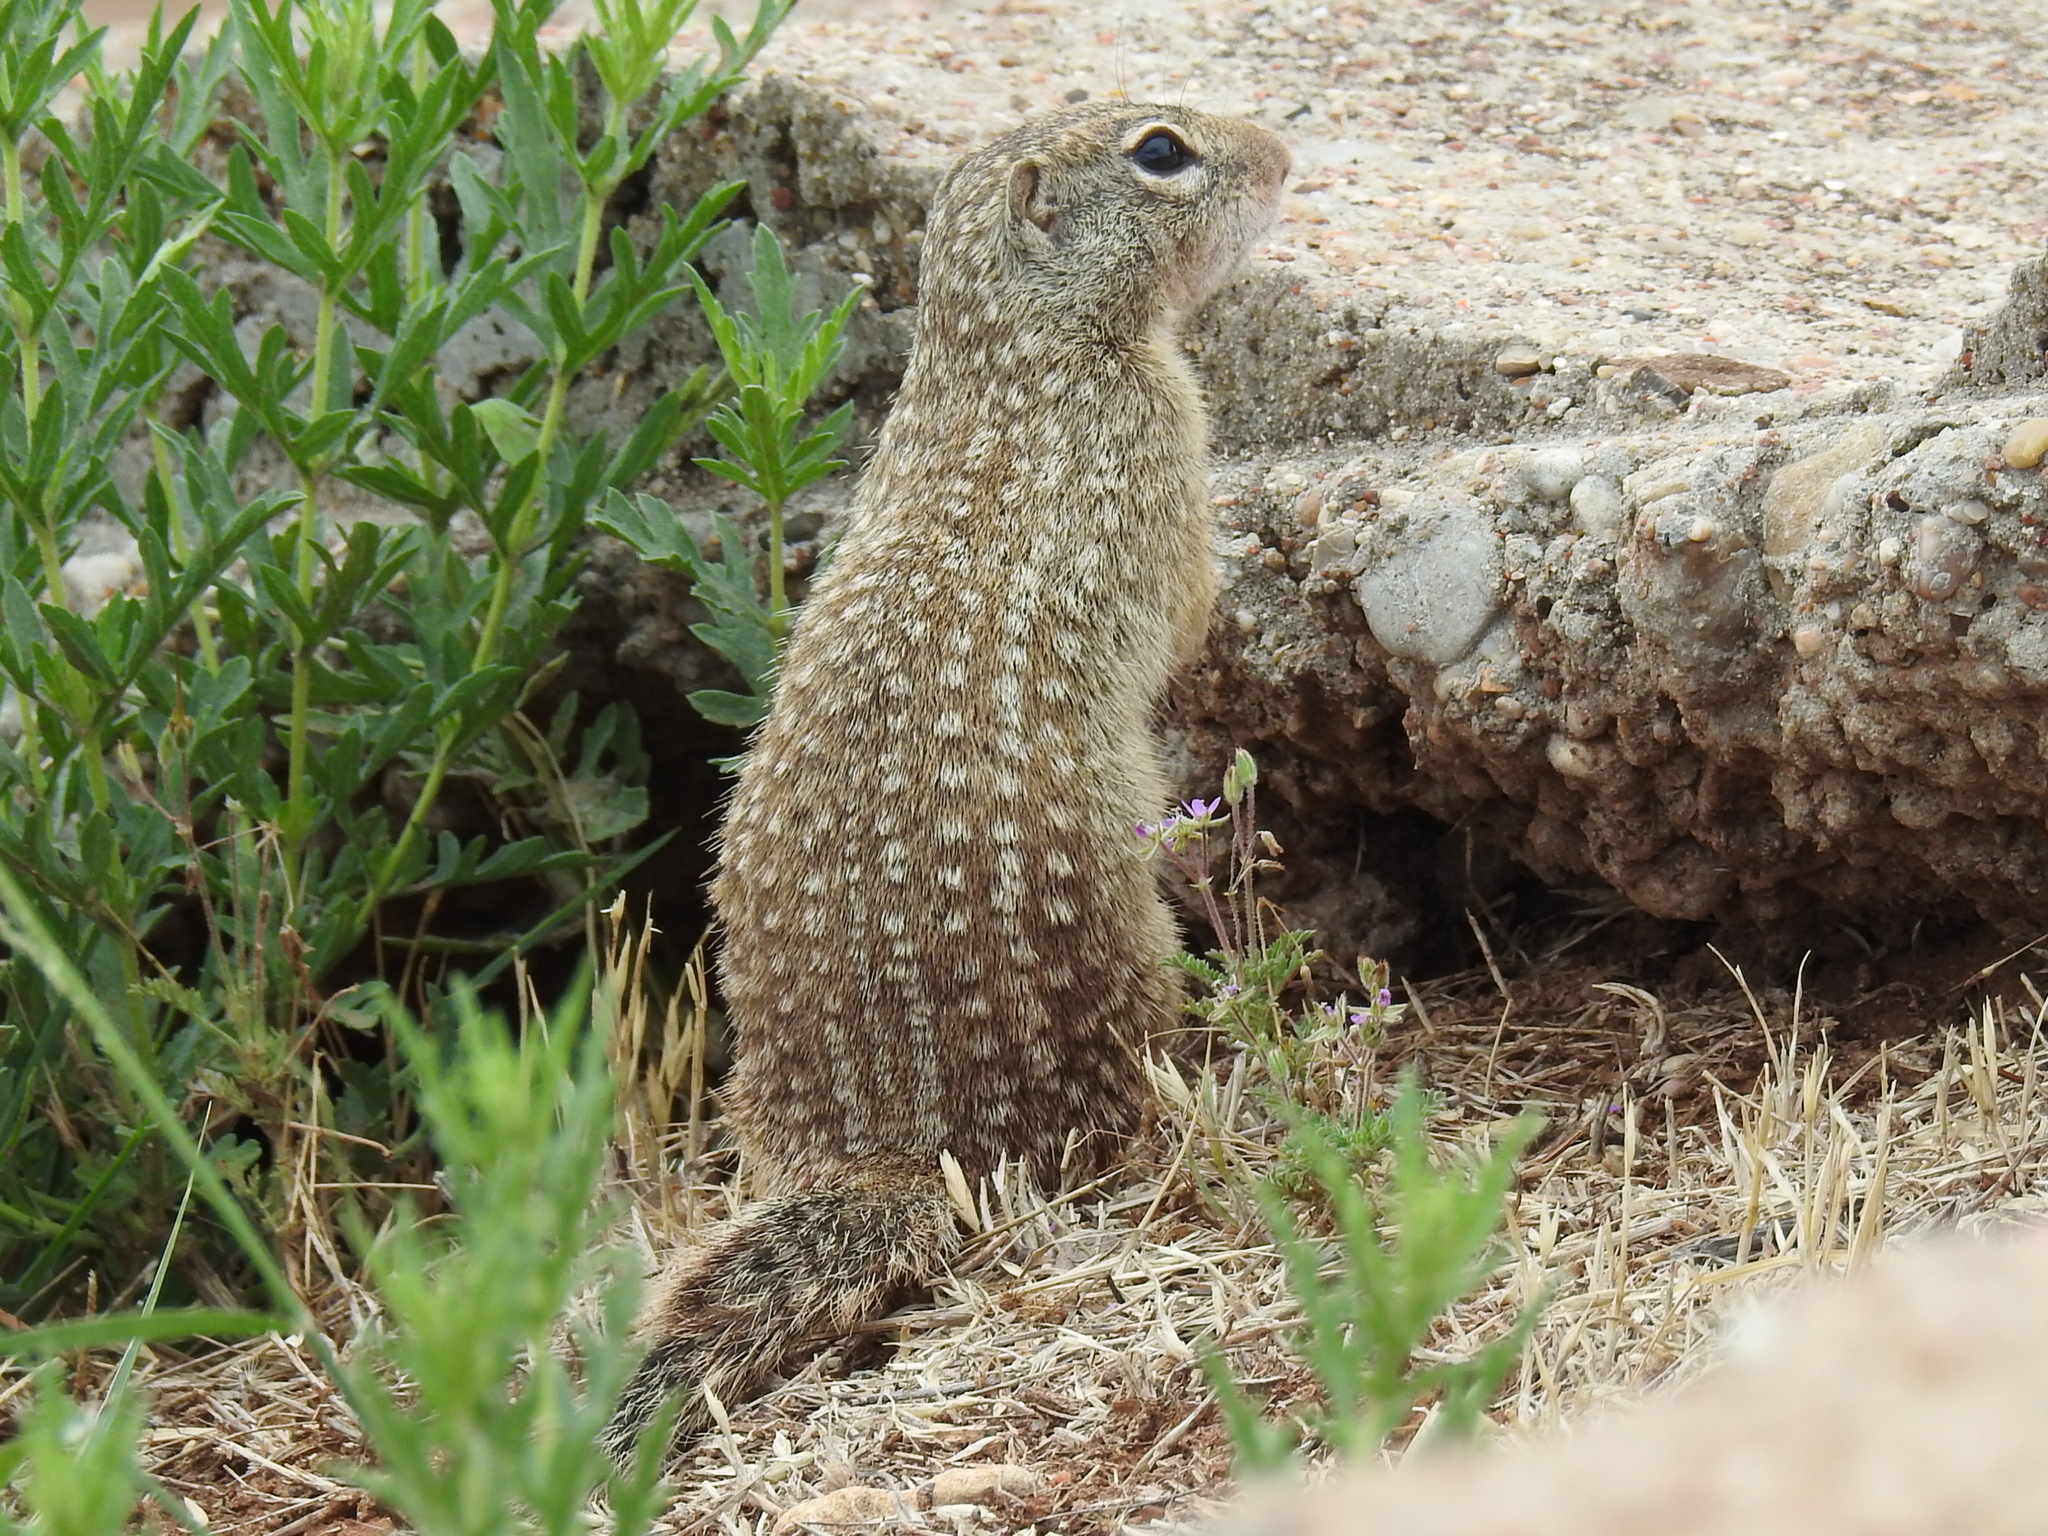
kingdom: Animalia
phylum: Chordata
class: Mammalia
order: Rodentia
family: Sciuridae
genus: Ictidomys
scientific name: Ictidomys parvidens
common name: Rio grande ground squirrel
